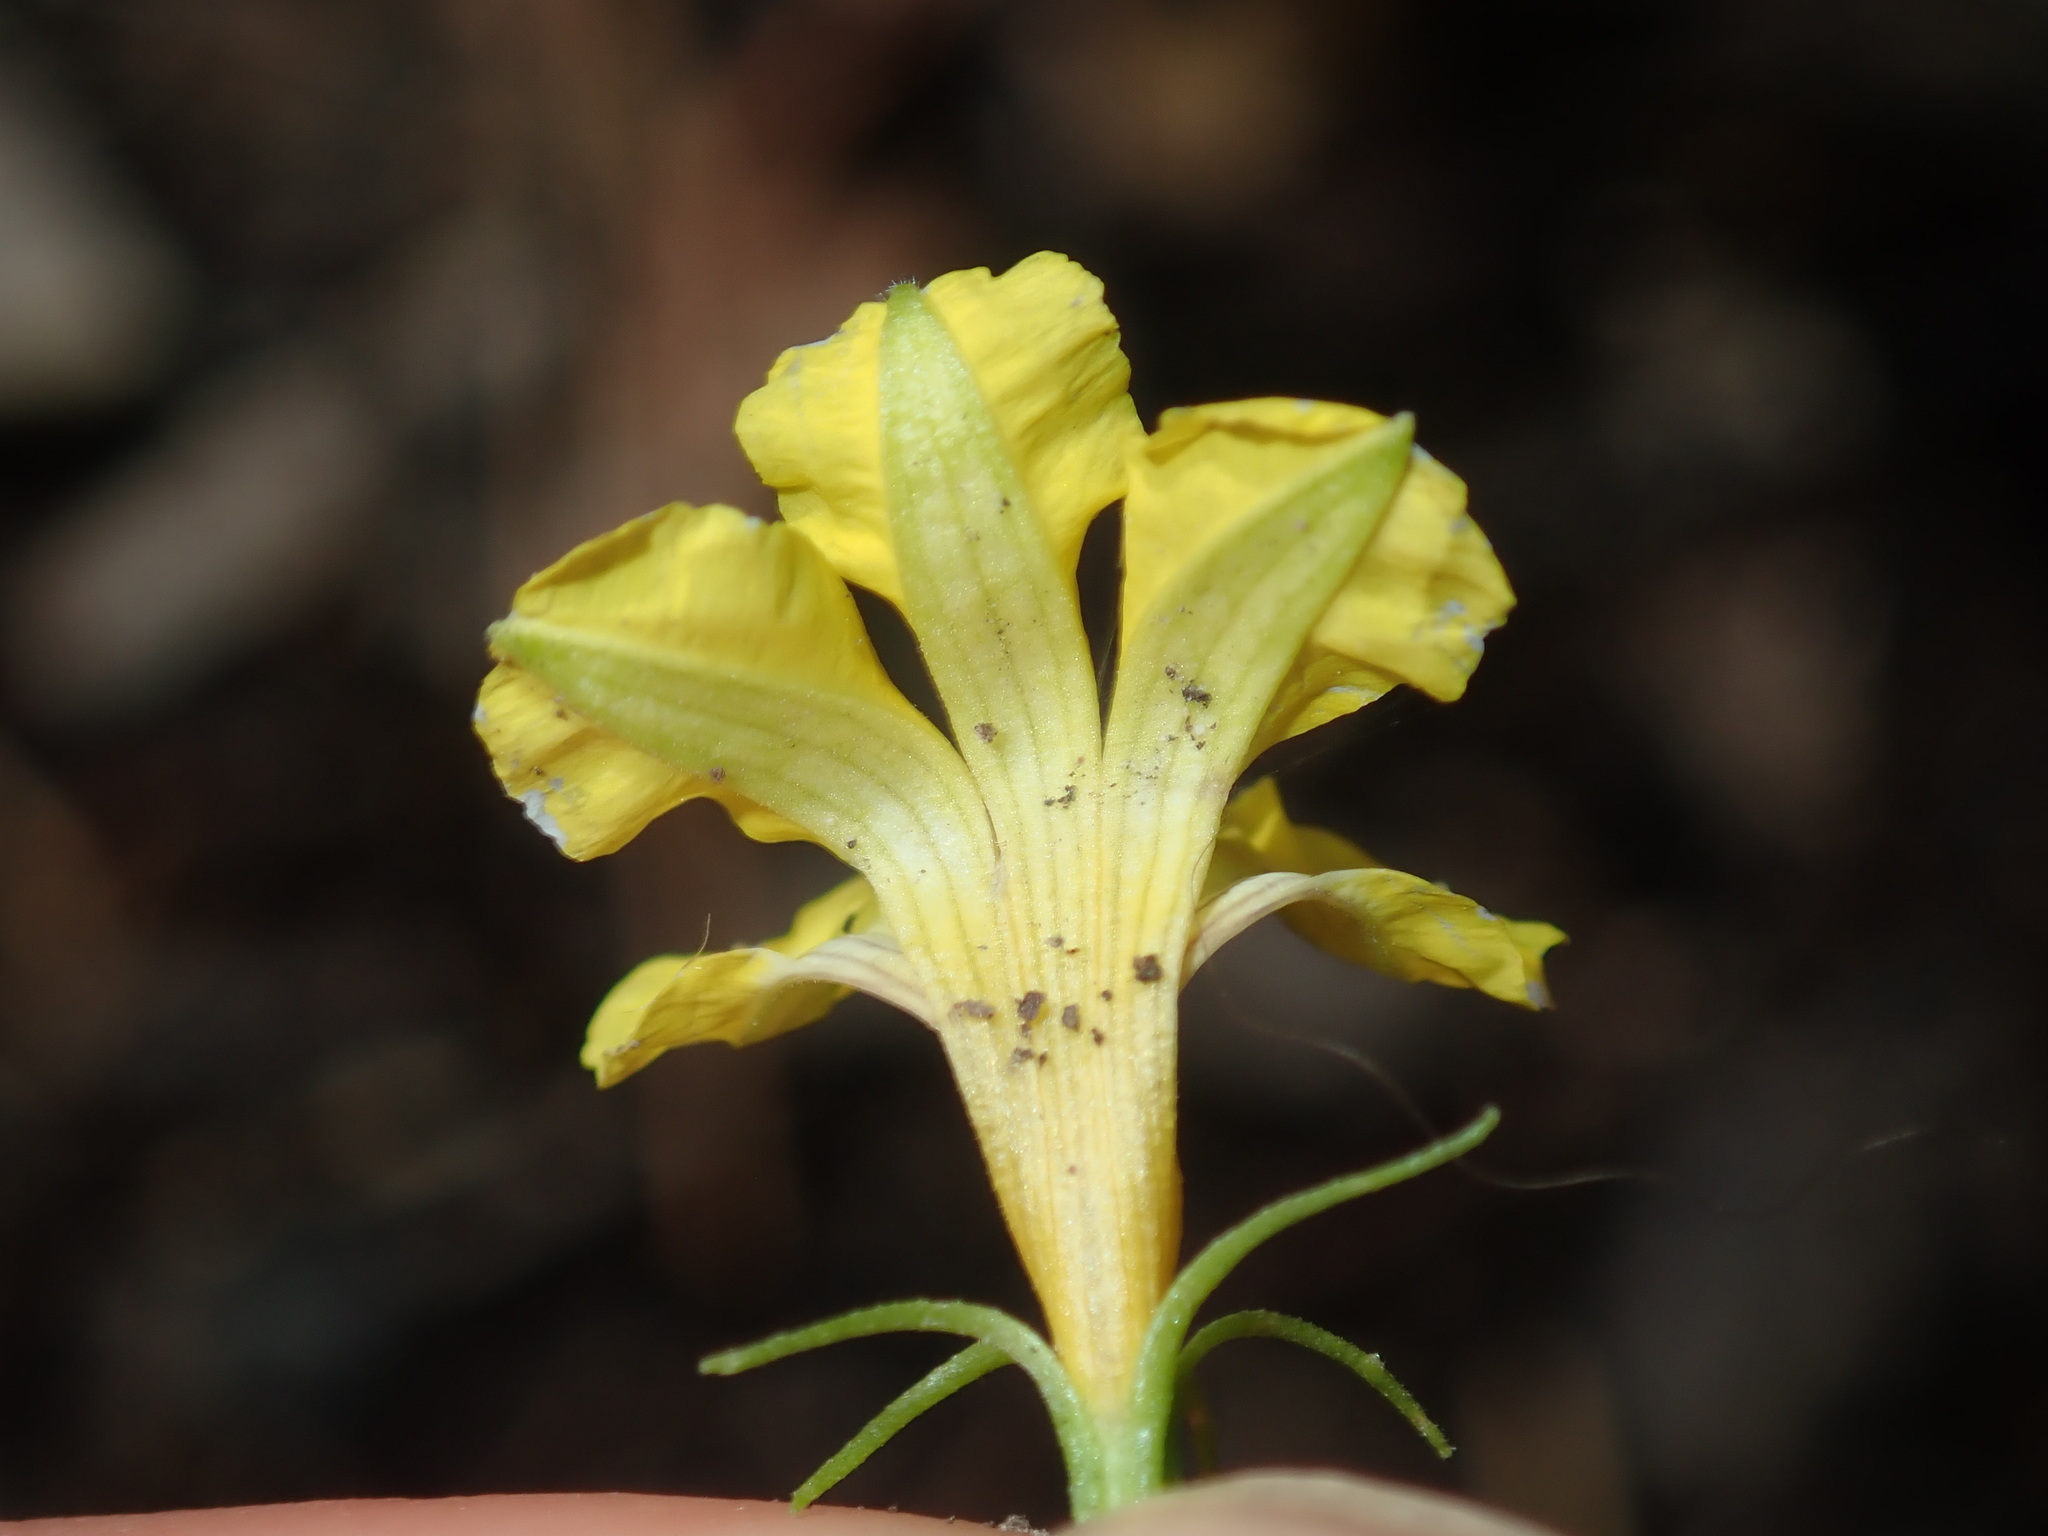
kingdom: Plantae
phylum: Tracheophyta
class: Magnoliopsida
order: Asterales
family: Goodeniaceae
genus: Goodenia
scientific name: Goodenia ovata
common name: Hop goodenia
